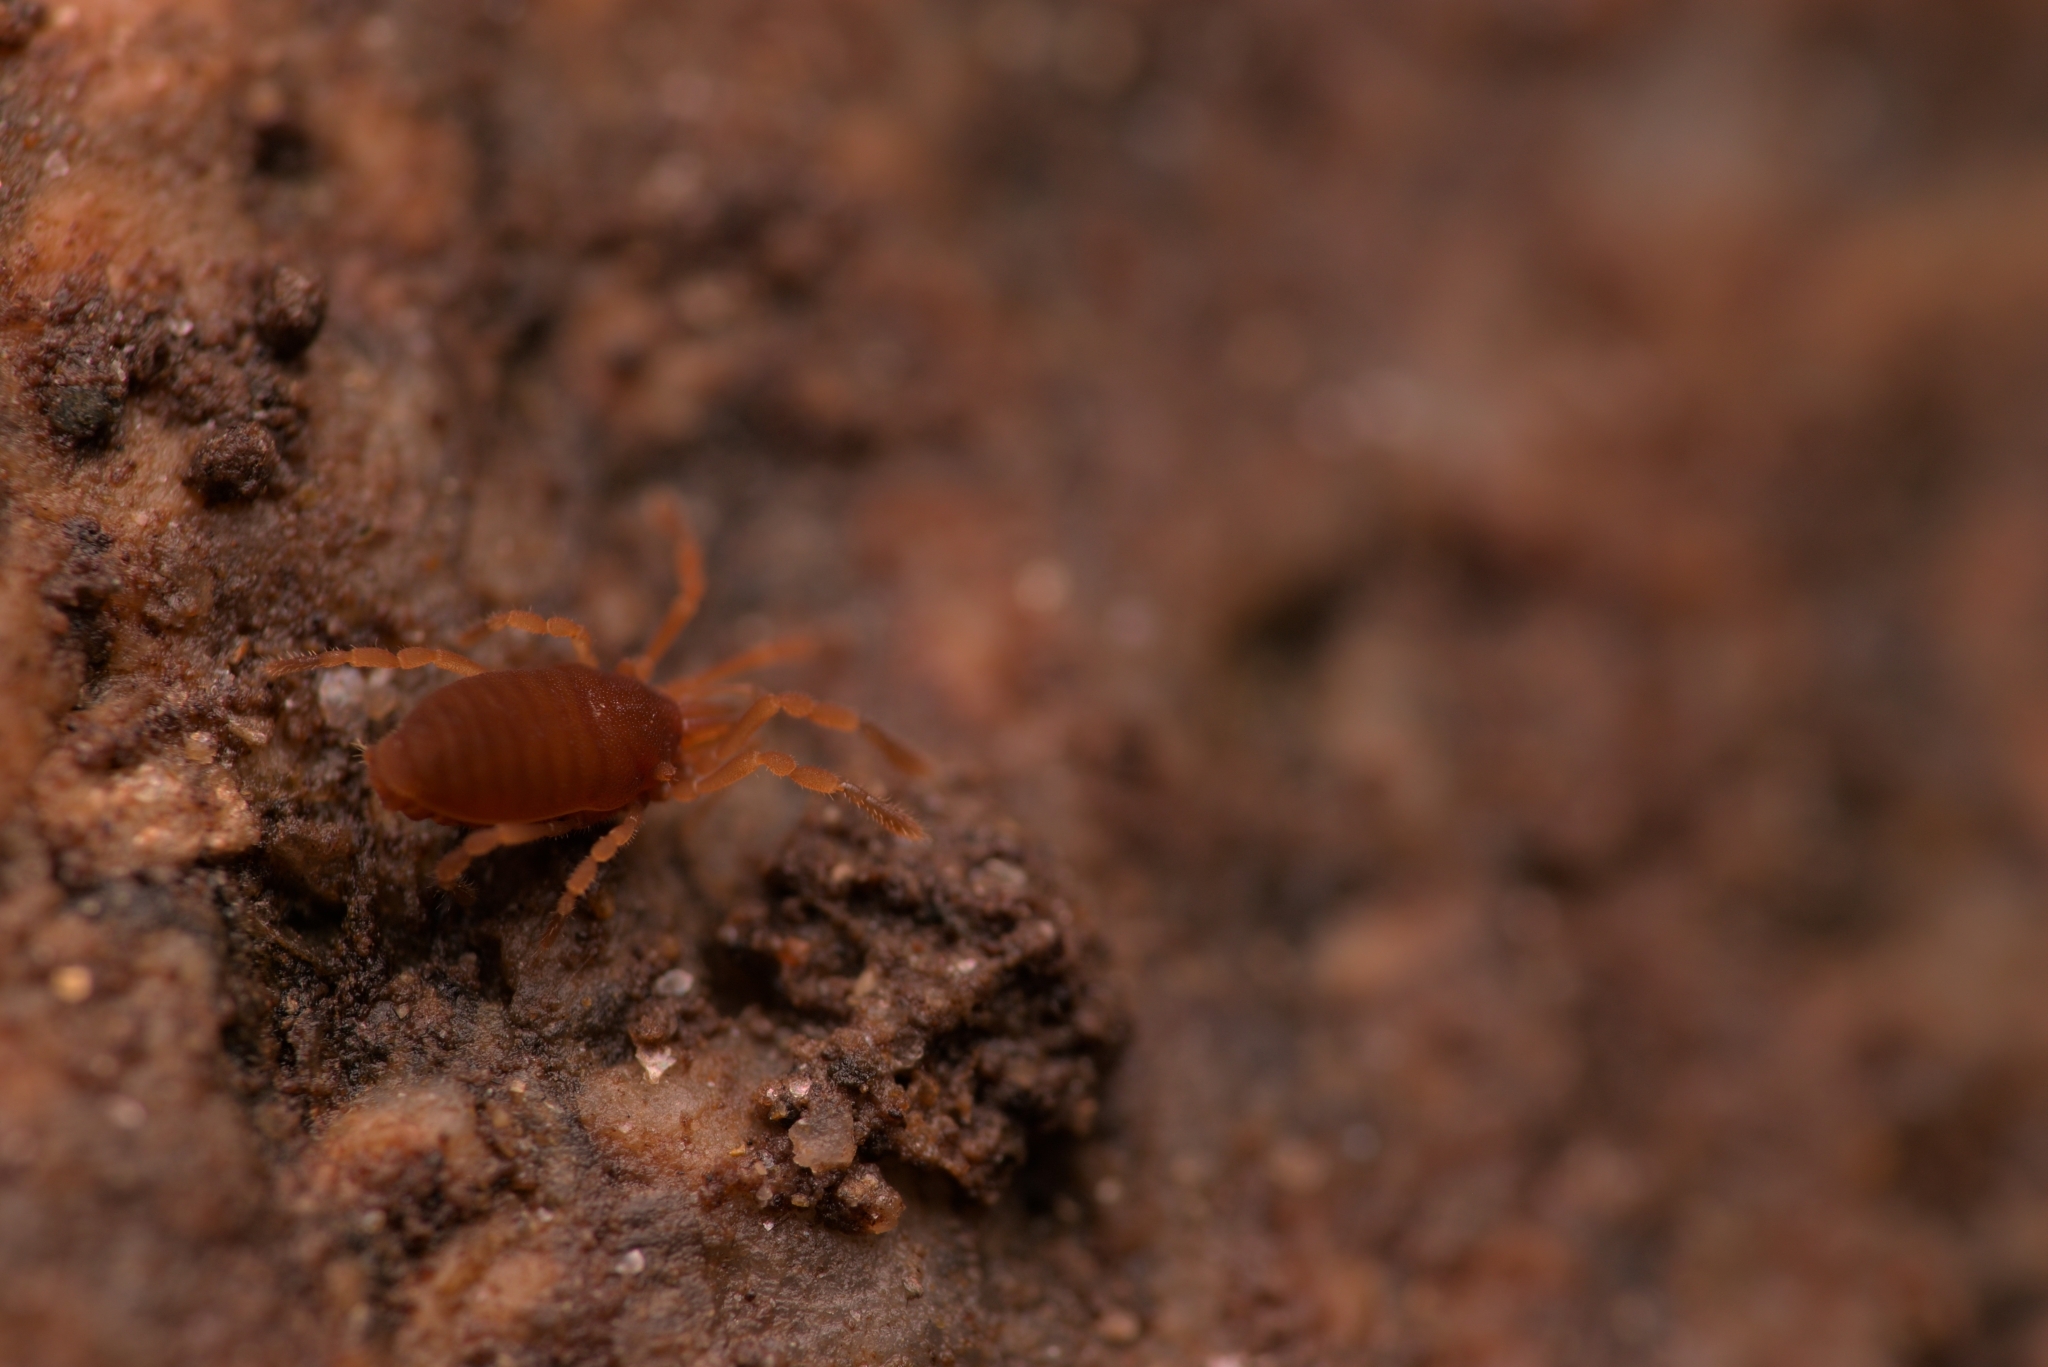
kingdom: Animalia
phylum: Arthropoda
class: Arachnida
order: Opiliones
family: Sironidae
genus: Siro
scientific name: Siro rubens
